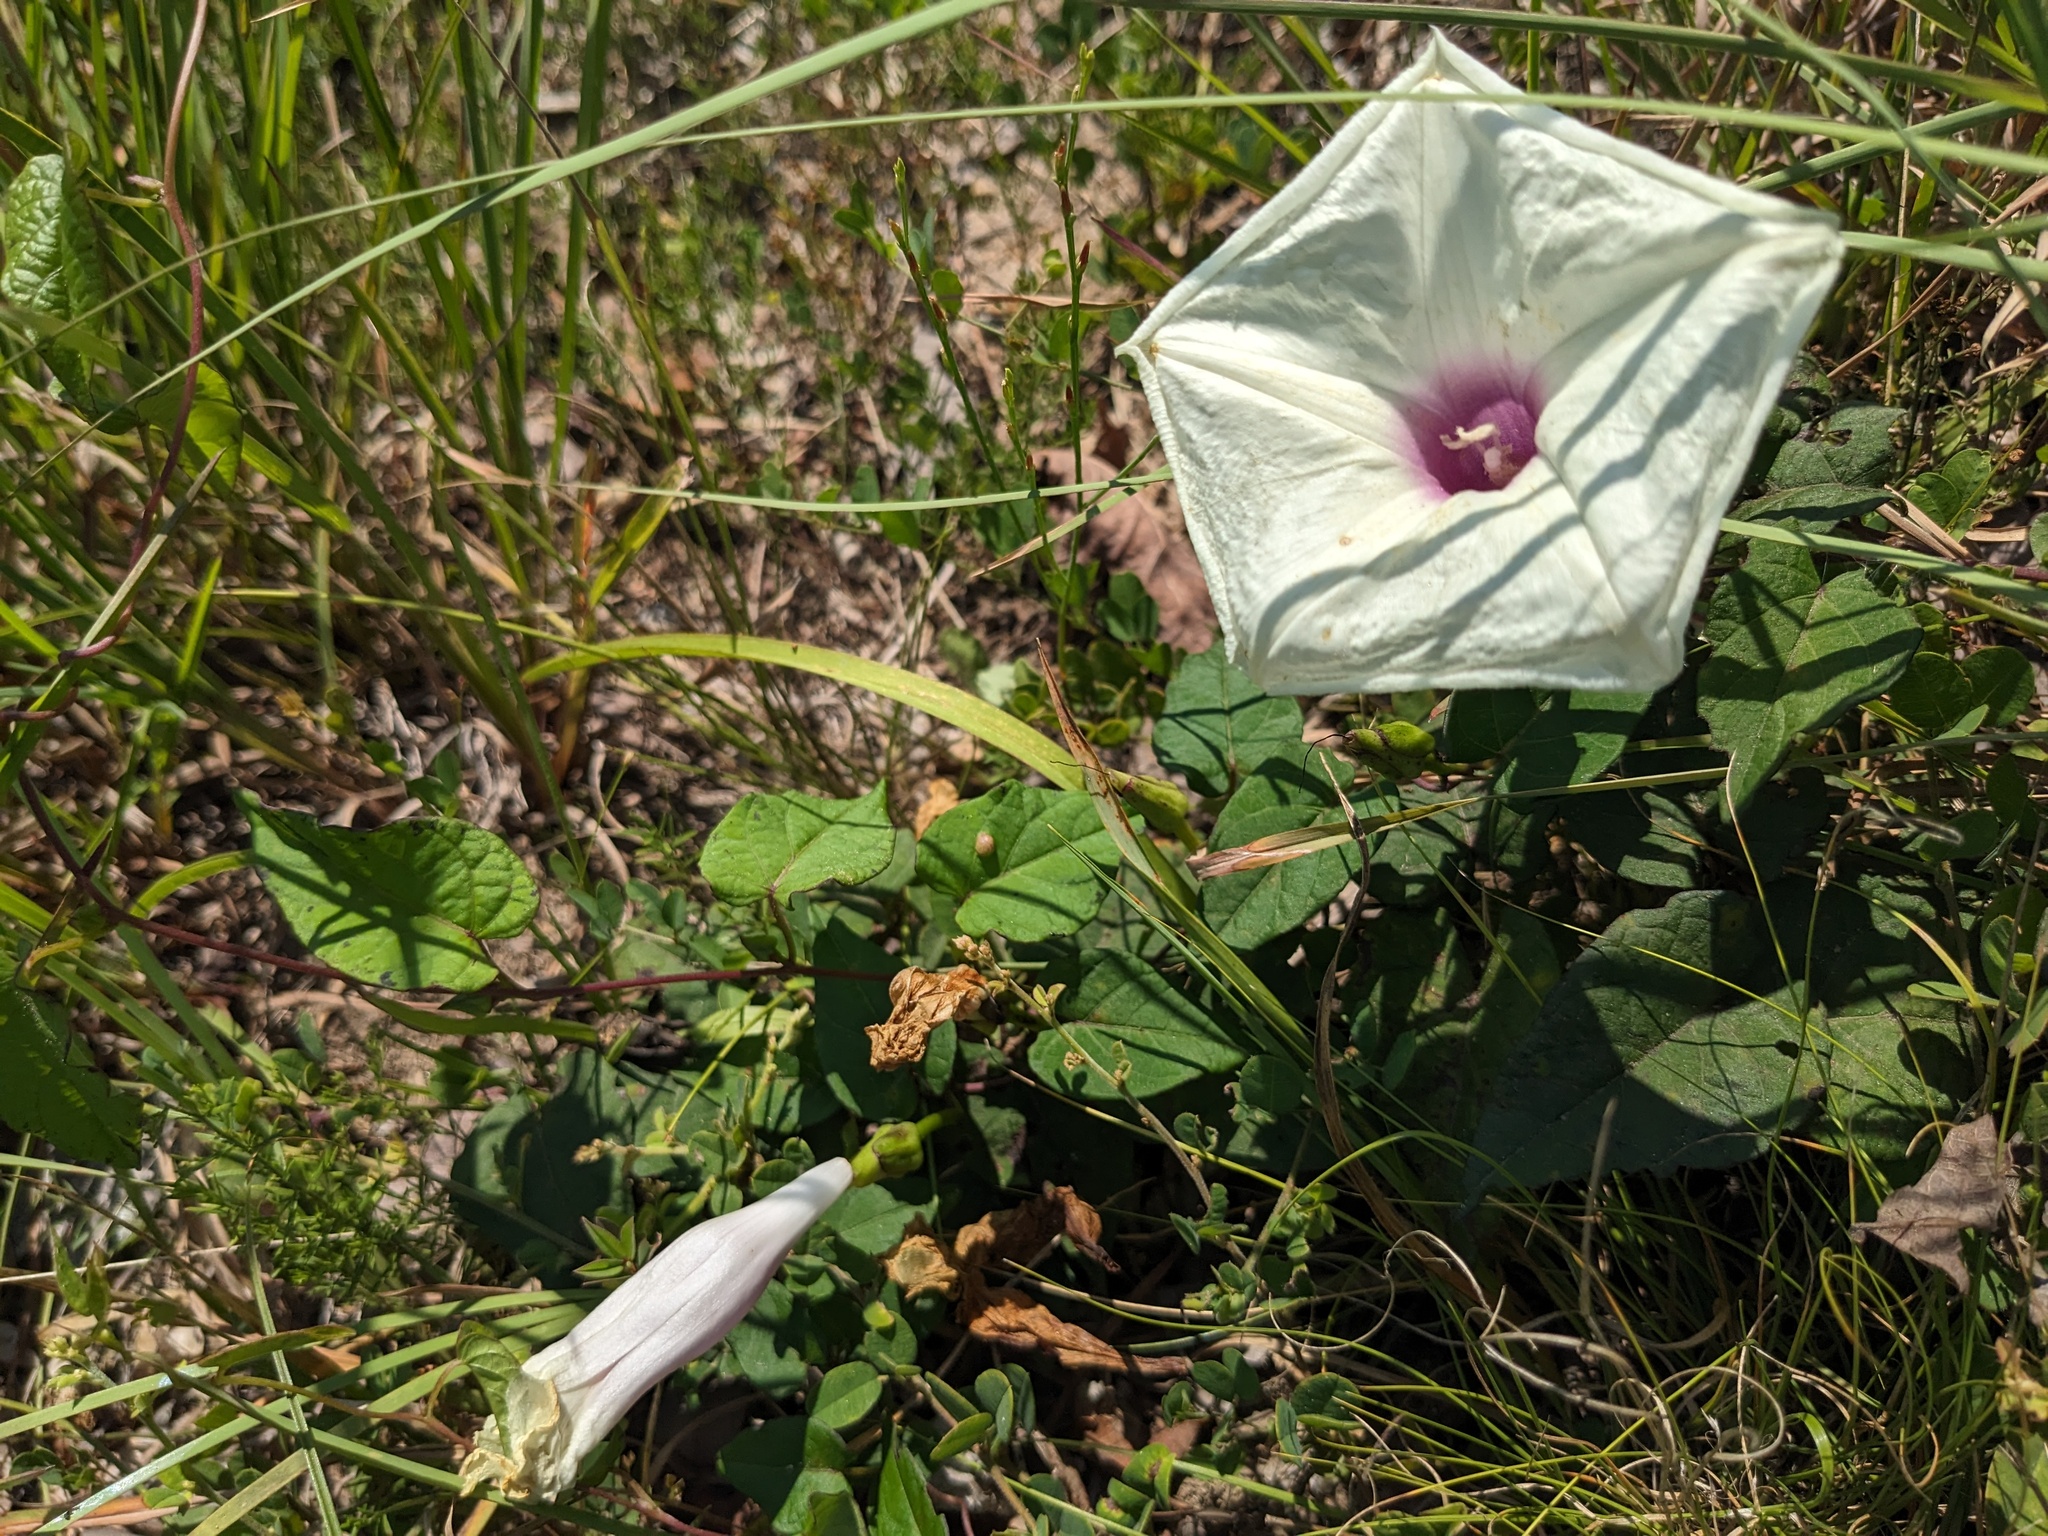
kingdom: Plantae
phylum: Tracheophyta
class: Magnoliopsida
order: Solanales
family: Convolvulaceae
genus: Ipomoea
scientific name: Ipomoea pandurata
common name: Man-of-the-earth
